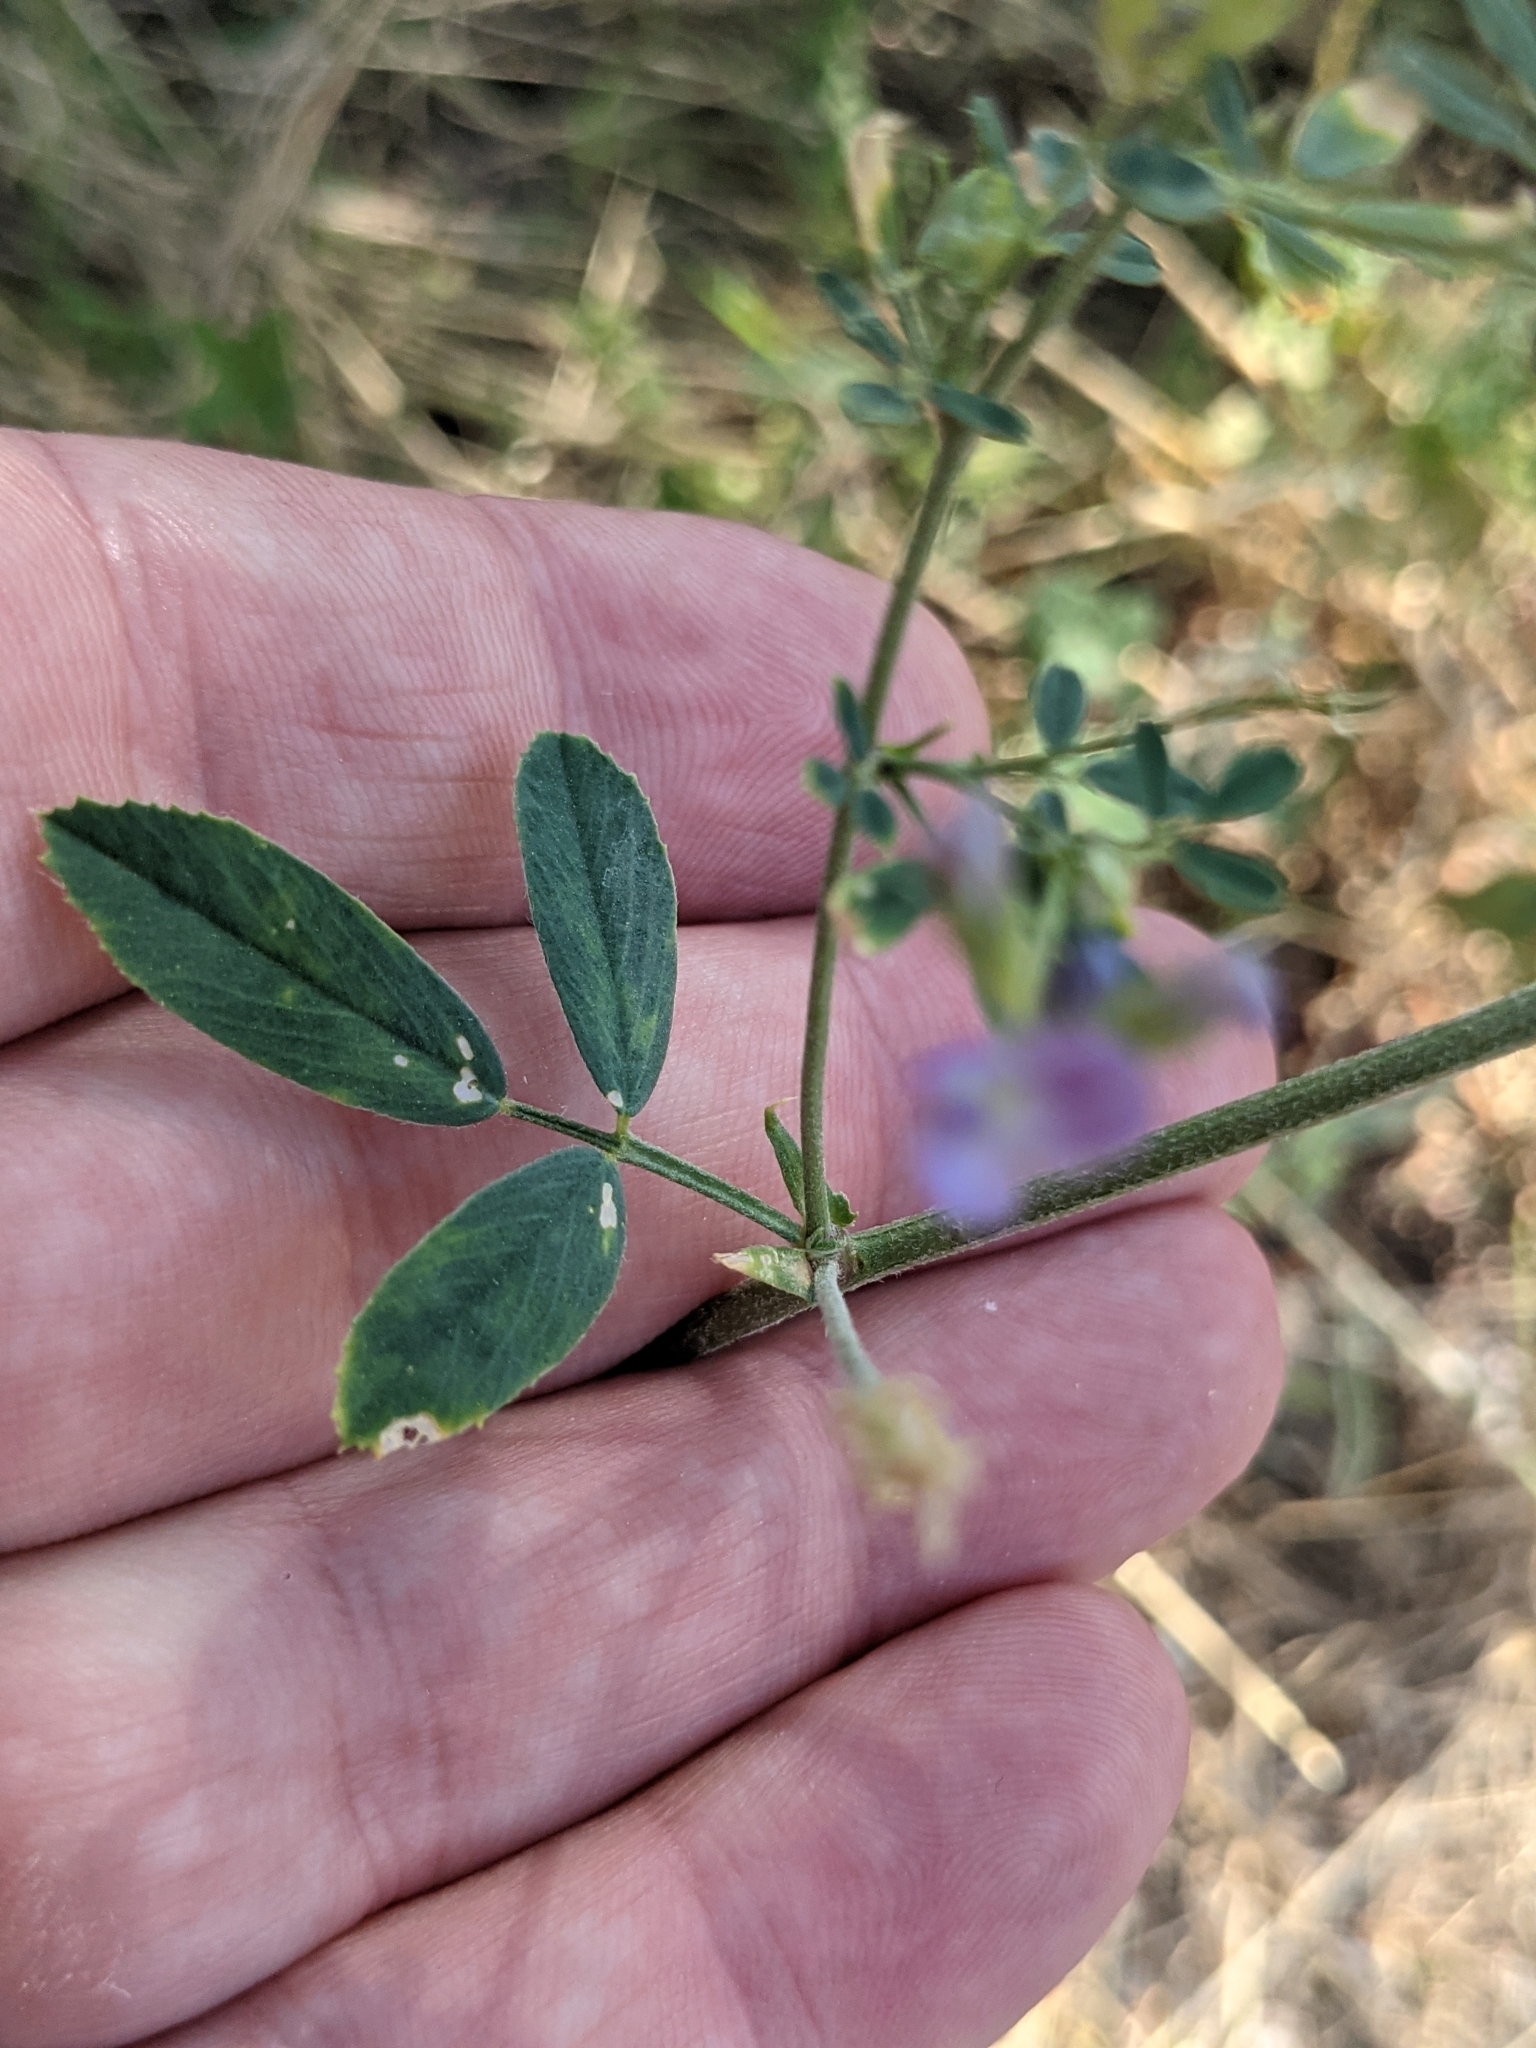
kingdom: Plantae
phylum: Tracheophyta
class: Magnoliopsida
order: Fabales
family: Fabaceae
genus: Medicago
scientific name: Medicago sativa
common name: Alfalfa
